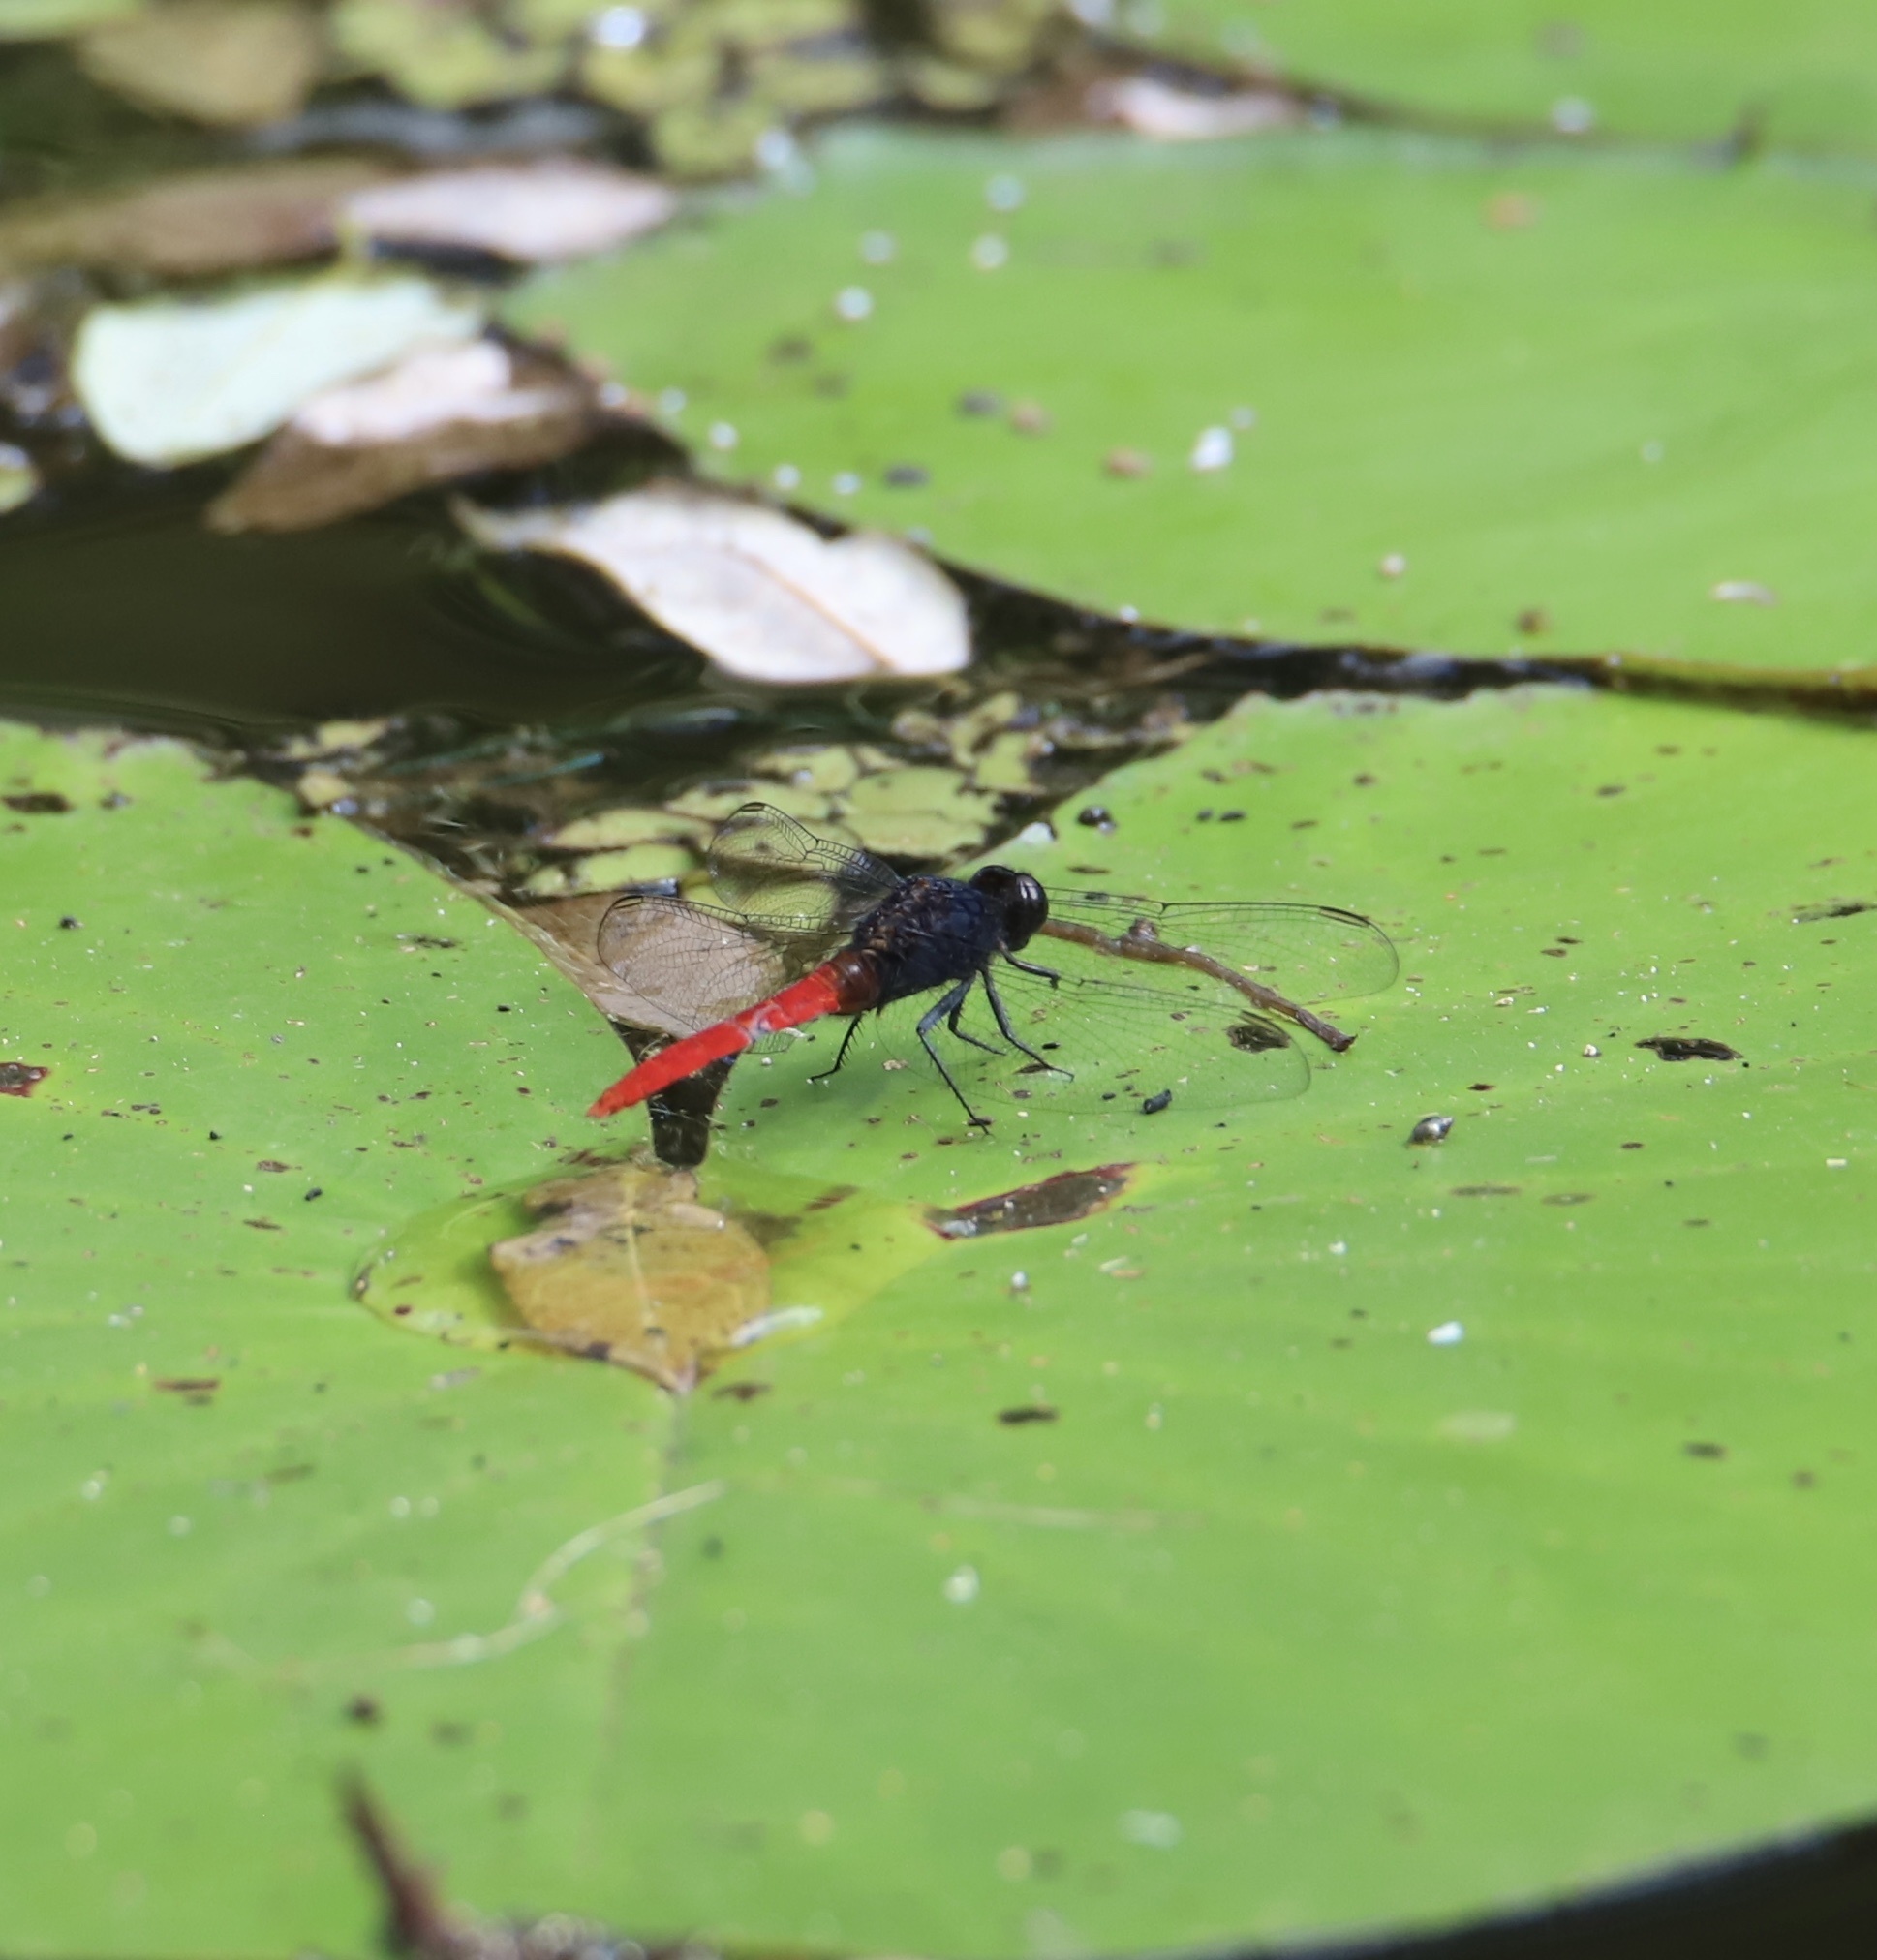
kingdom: Animalia
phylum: Arthropoda
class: Insecta
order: Odonata
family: Libellulidae
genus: Erythemis
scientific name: Erythemis peruviana
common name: Flame-tailed pondhawk
